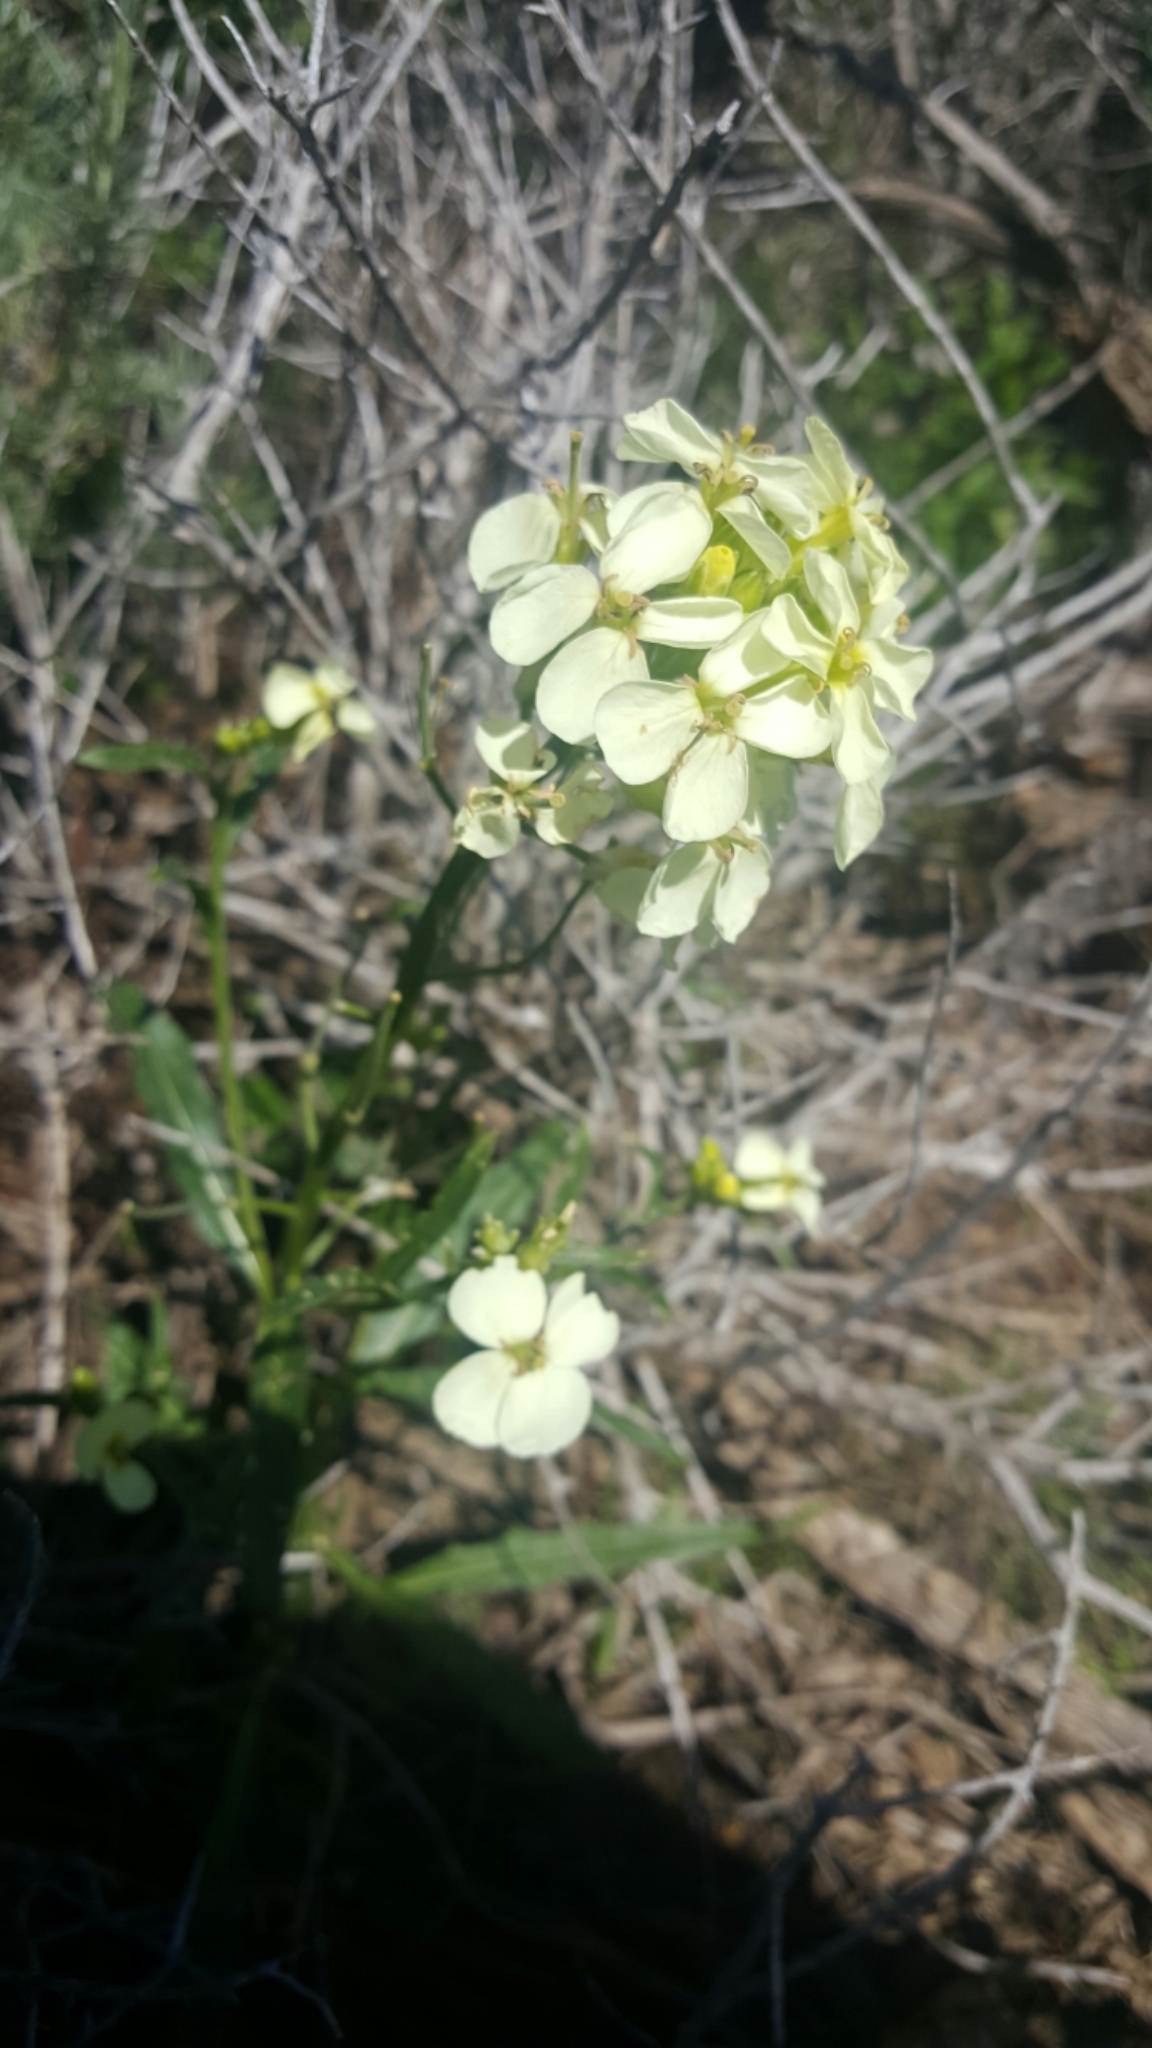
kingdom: Plantae
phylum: Tracheophyta
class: Magnoliopsida
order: Brassicales
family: Brassicaceae
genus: Erysimum
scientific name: Erysimum concinnum
